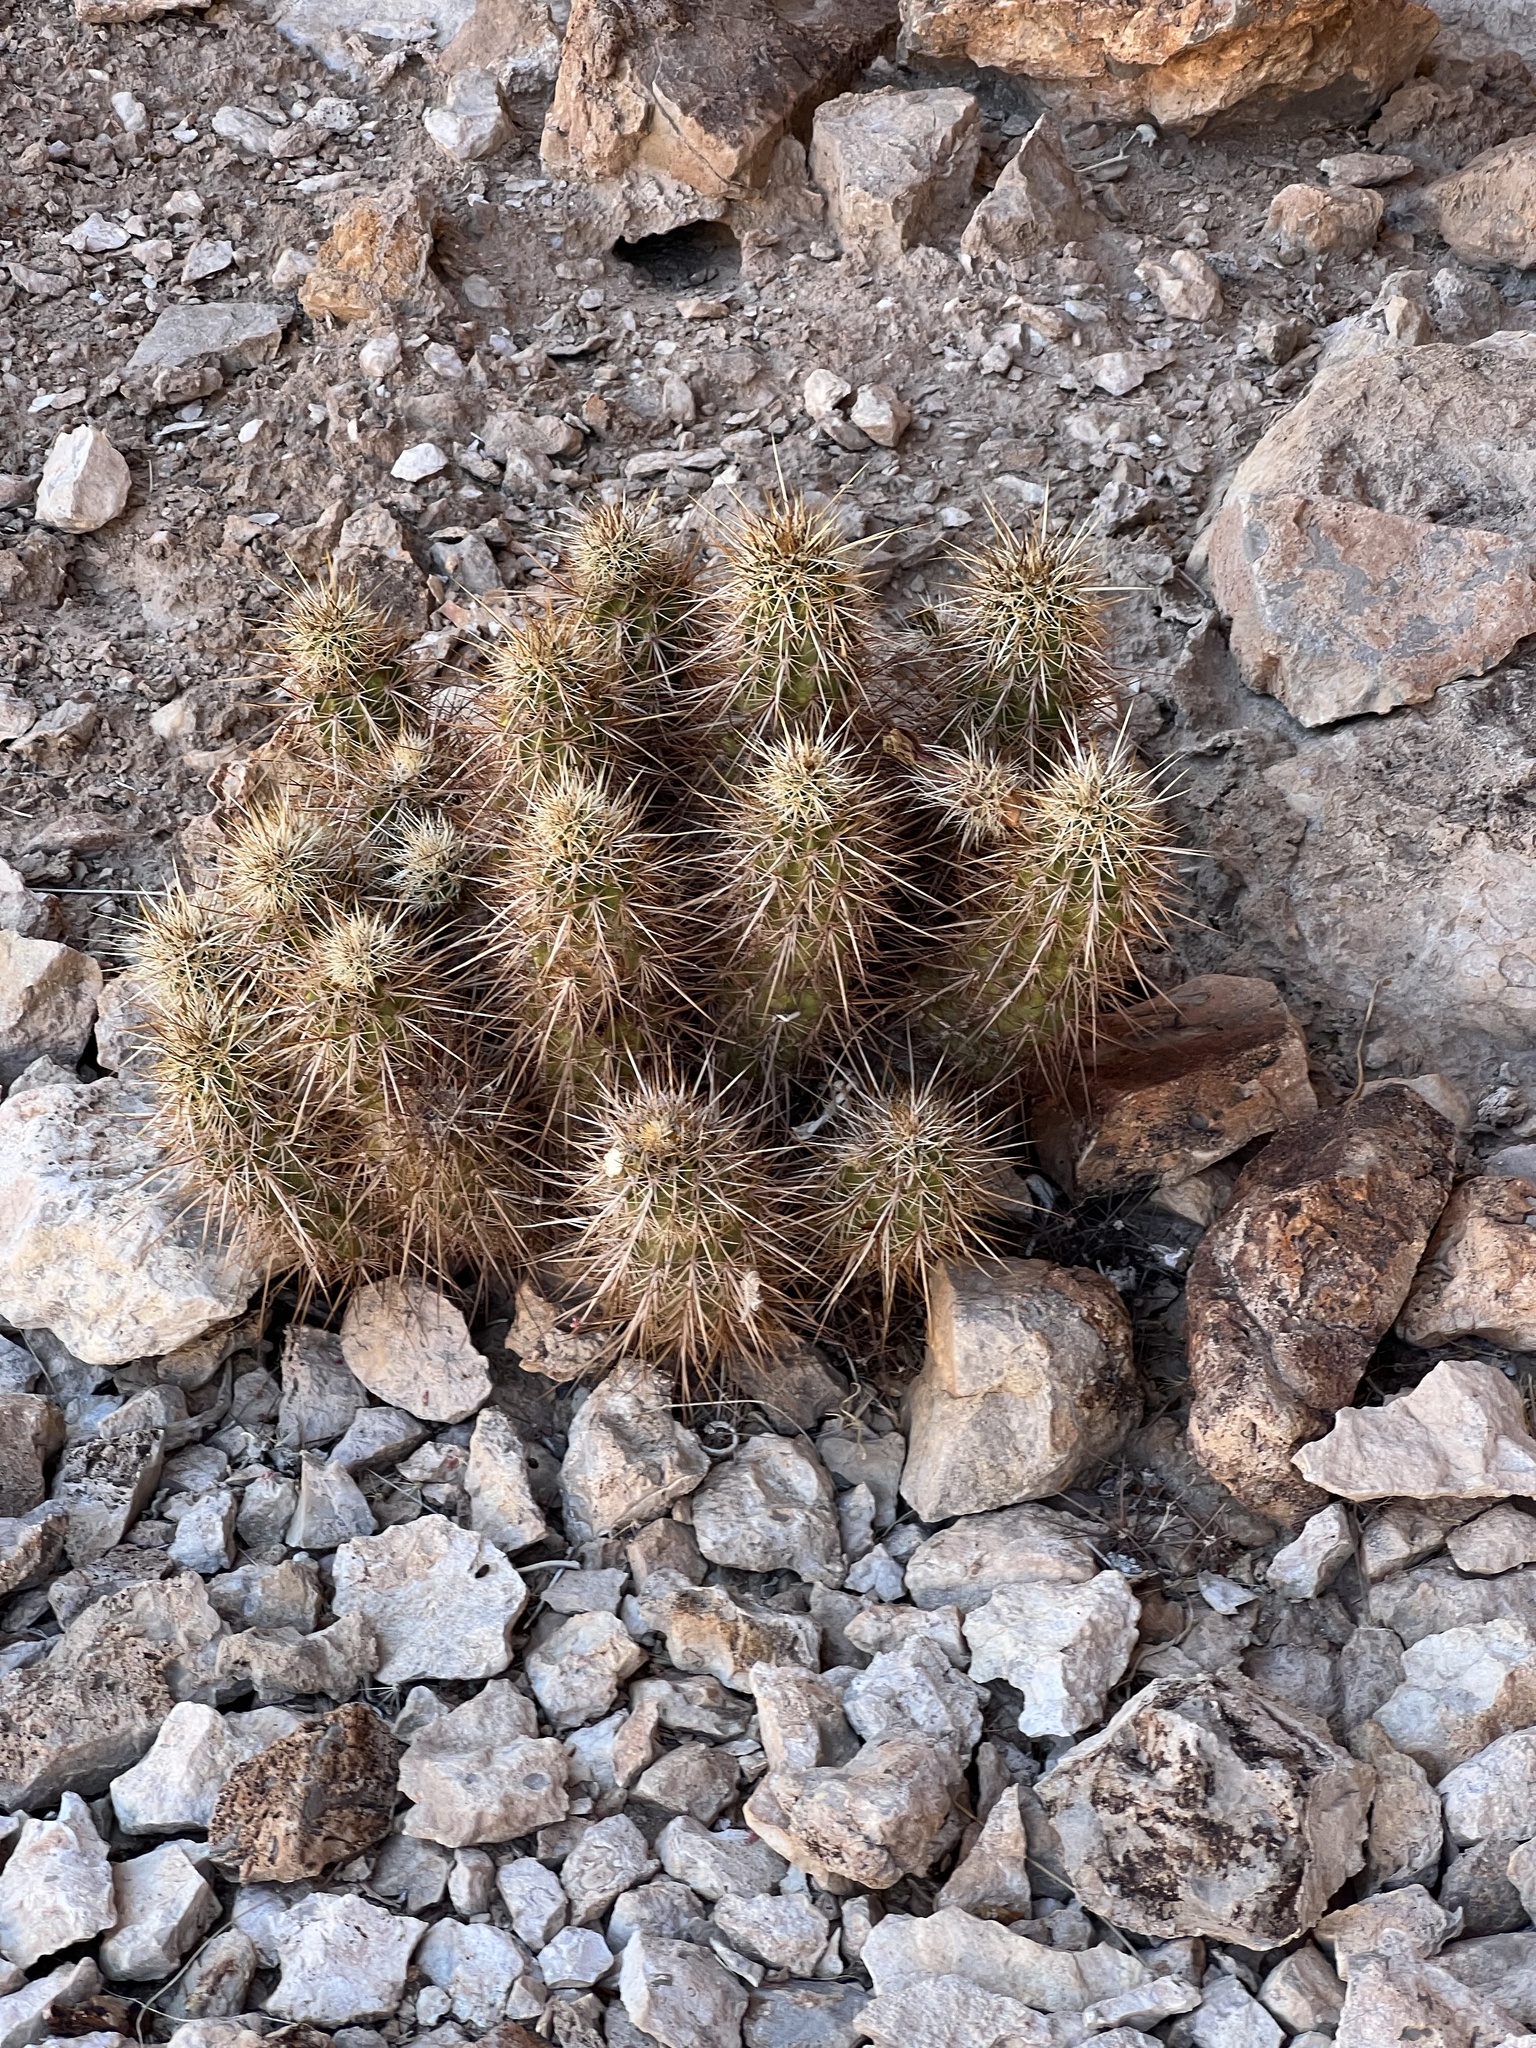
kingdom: Plantae
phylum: Tracheophyta
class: Magnoliopsida
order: Caryophyllales
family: Cactaceae
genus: Echinocereus
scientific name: Echinocereus engelmannii
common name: Engelmann's hedgehog cactus
